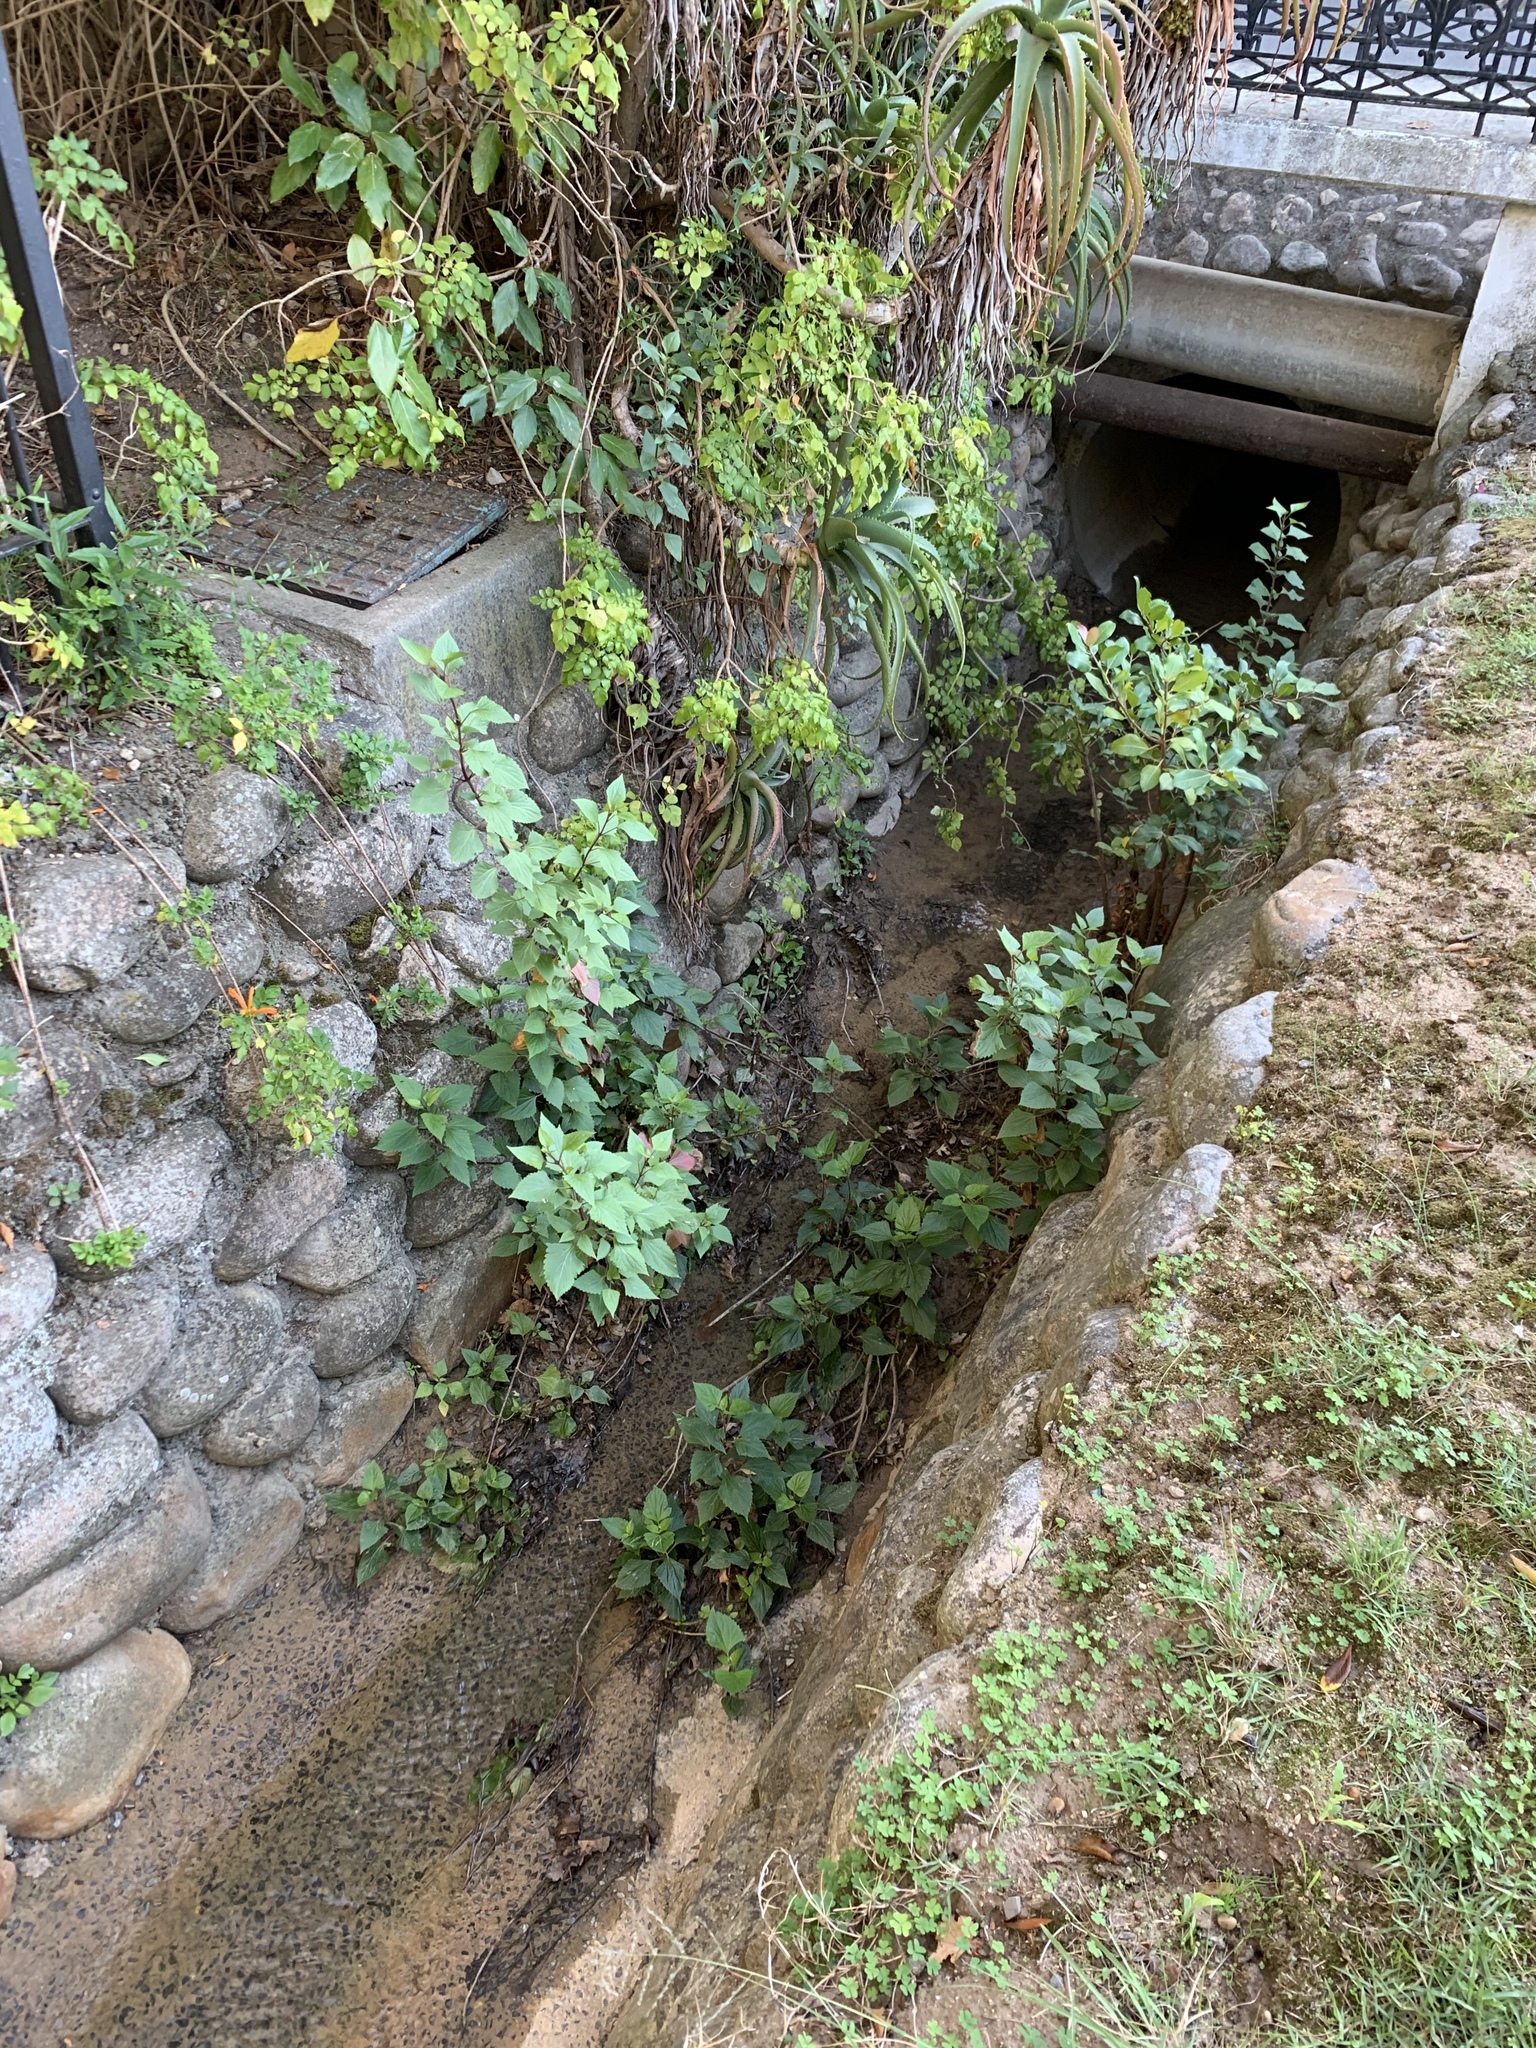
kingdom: Plantae
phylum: Tracheophyta
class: Magnoliopsida
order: Asterales
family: Asteraceae
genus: Ageratina
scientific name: Ageratina adenophora
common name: Sticky snakeroot
